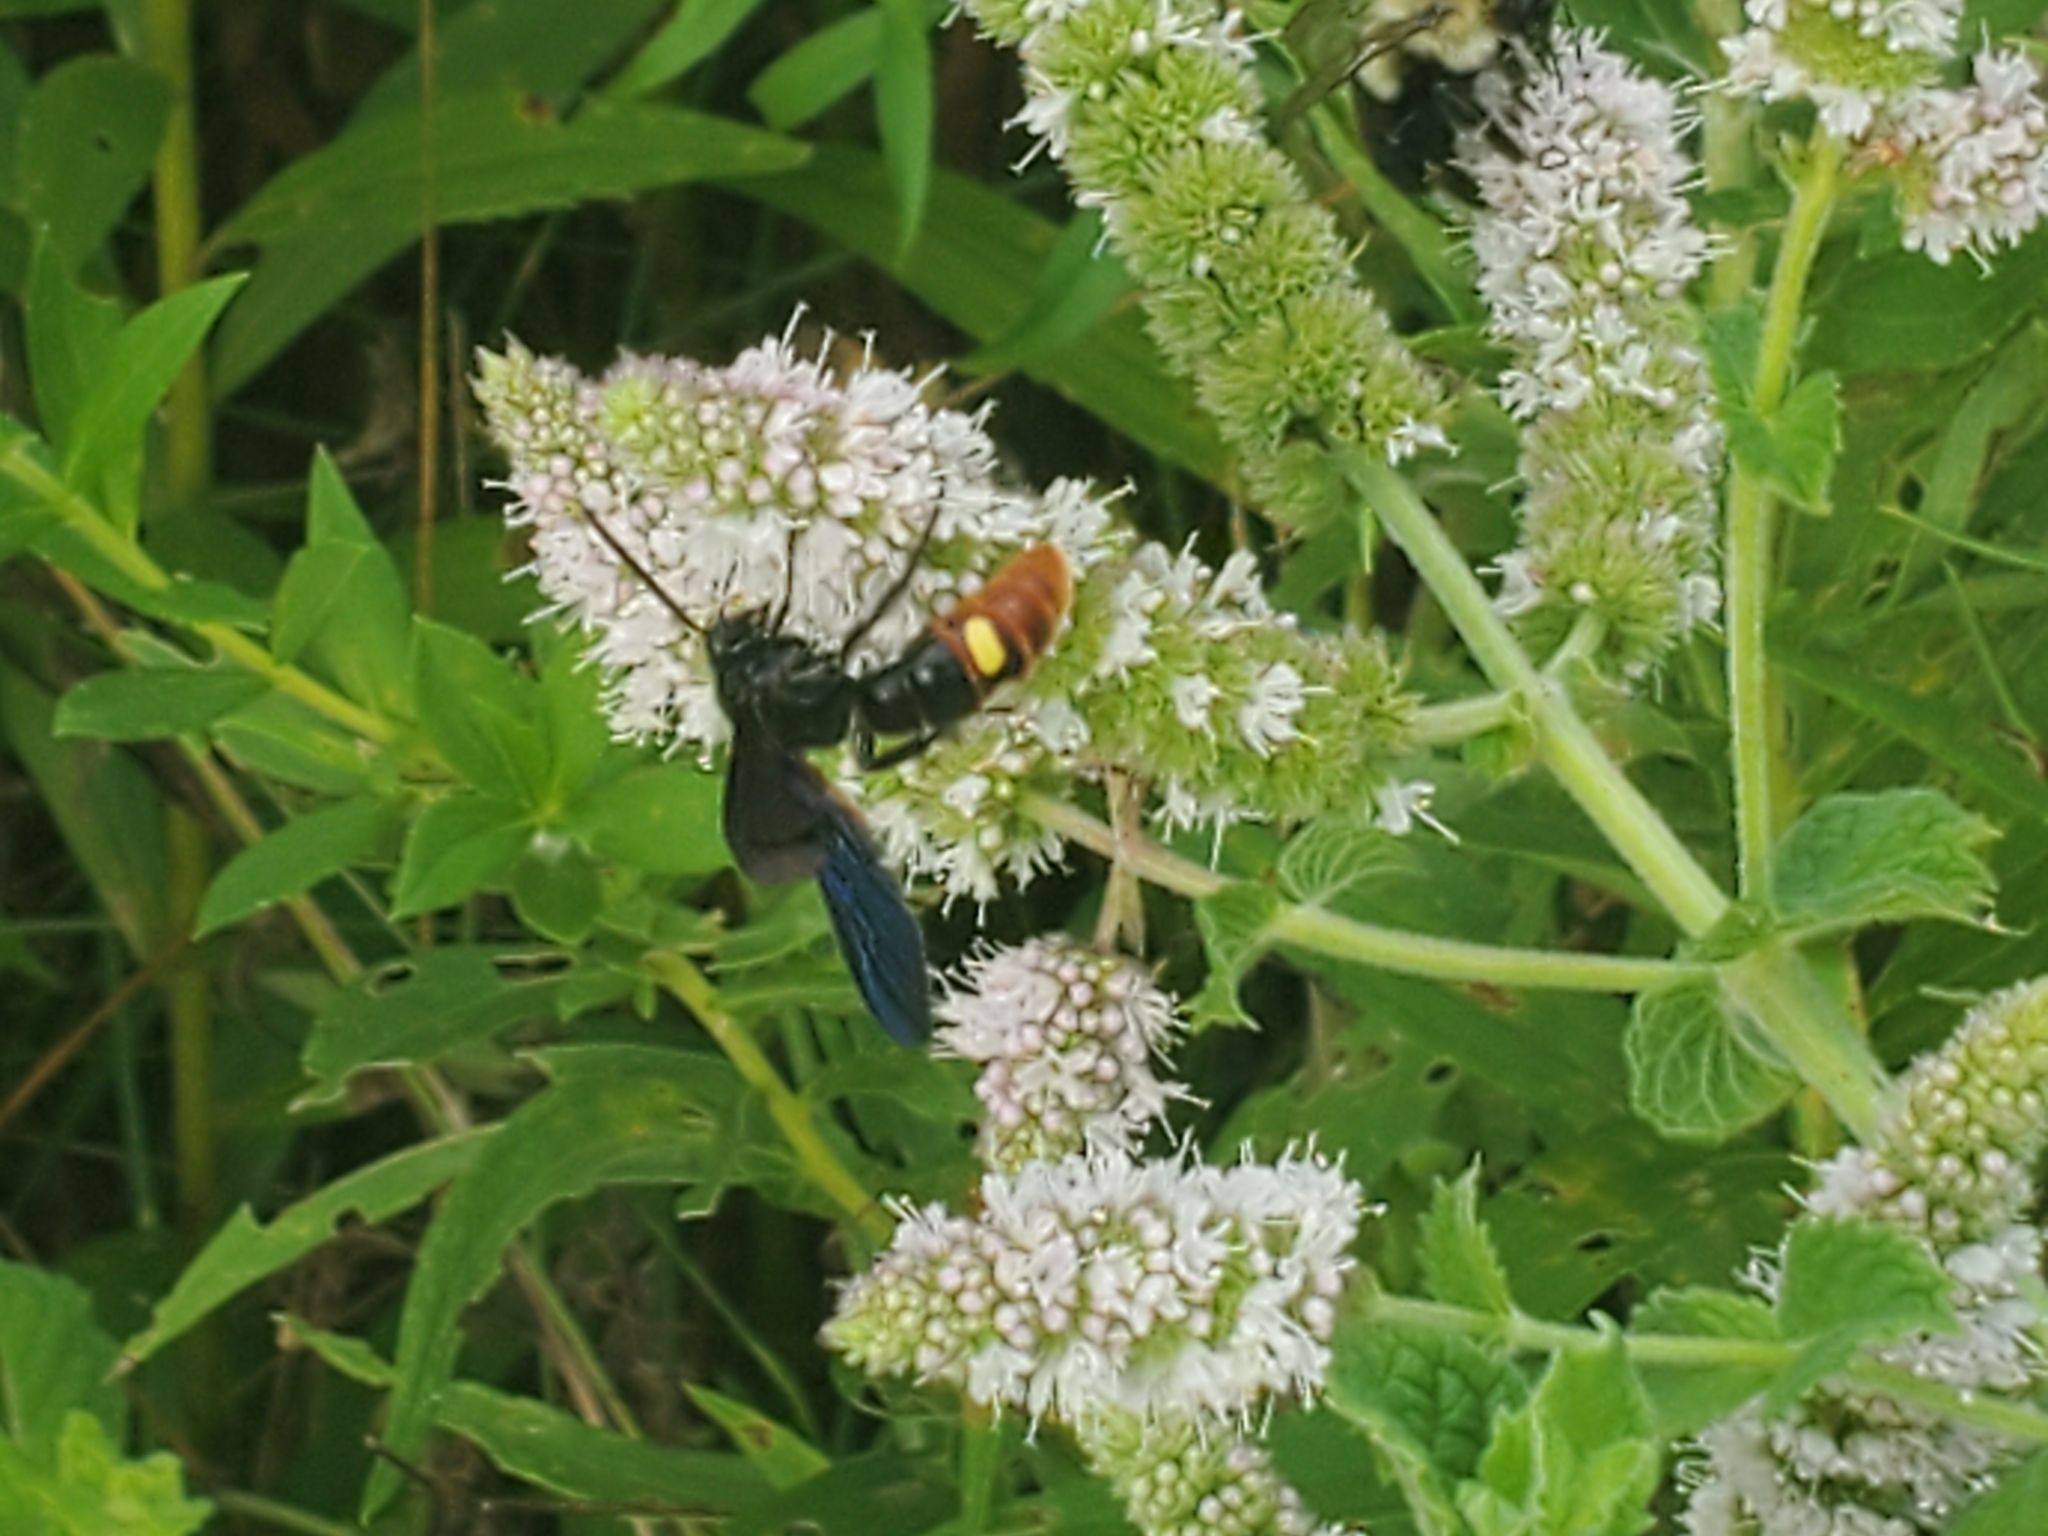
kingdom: Animalia
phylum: Arthropoda
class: Insecta
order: Hymenoptera
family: Scoliidae
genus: Scolia
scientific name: Scolia dubia
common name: Blue-winged scoliid wasp
